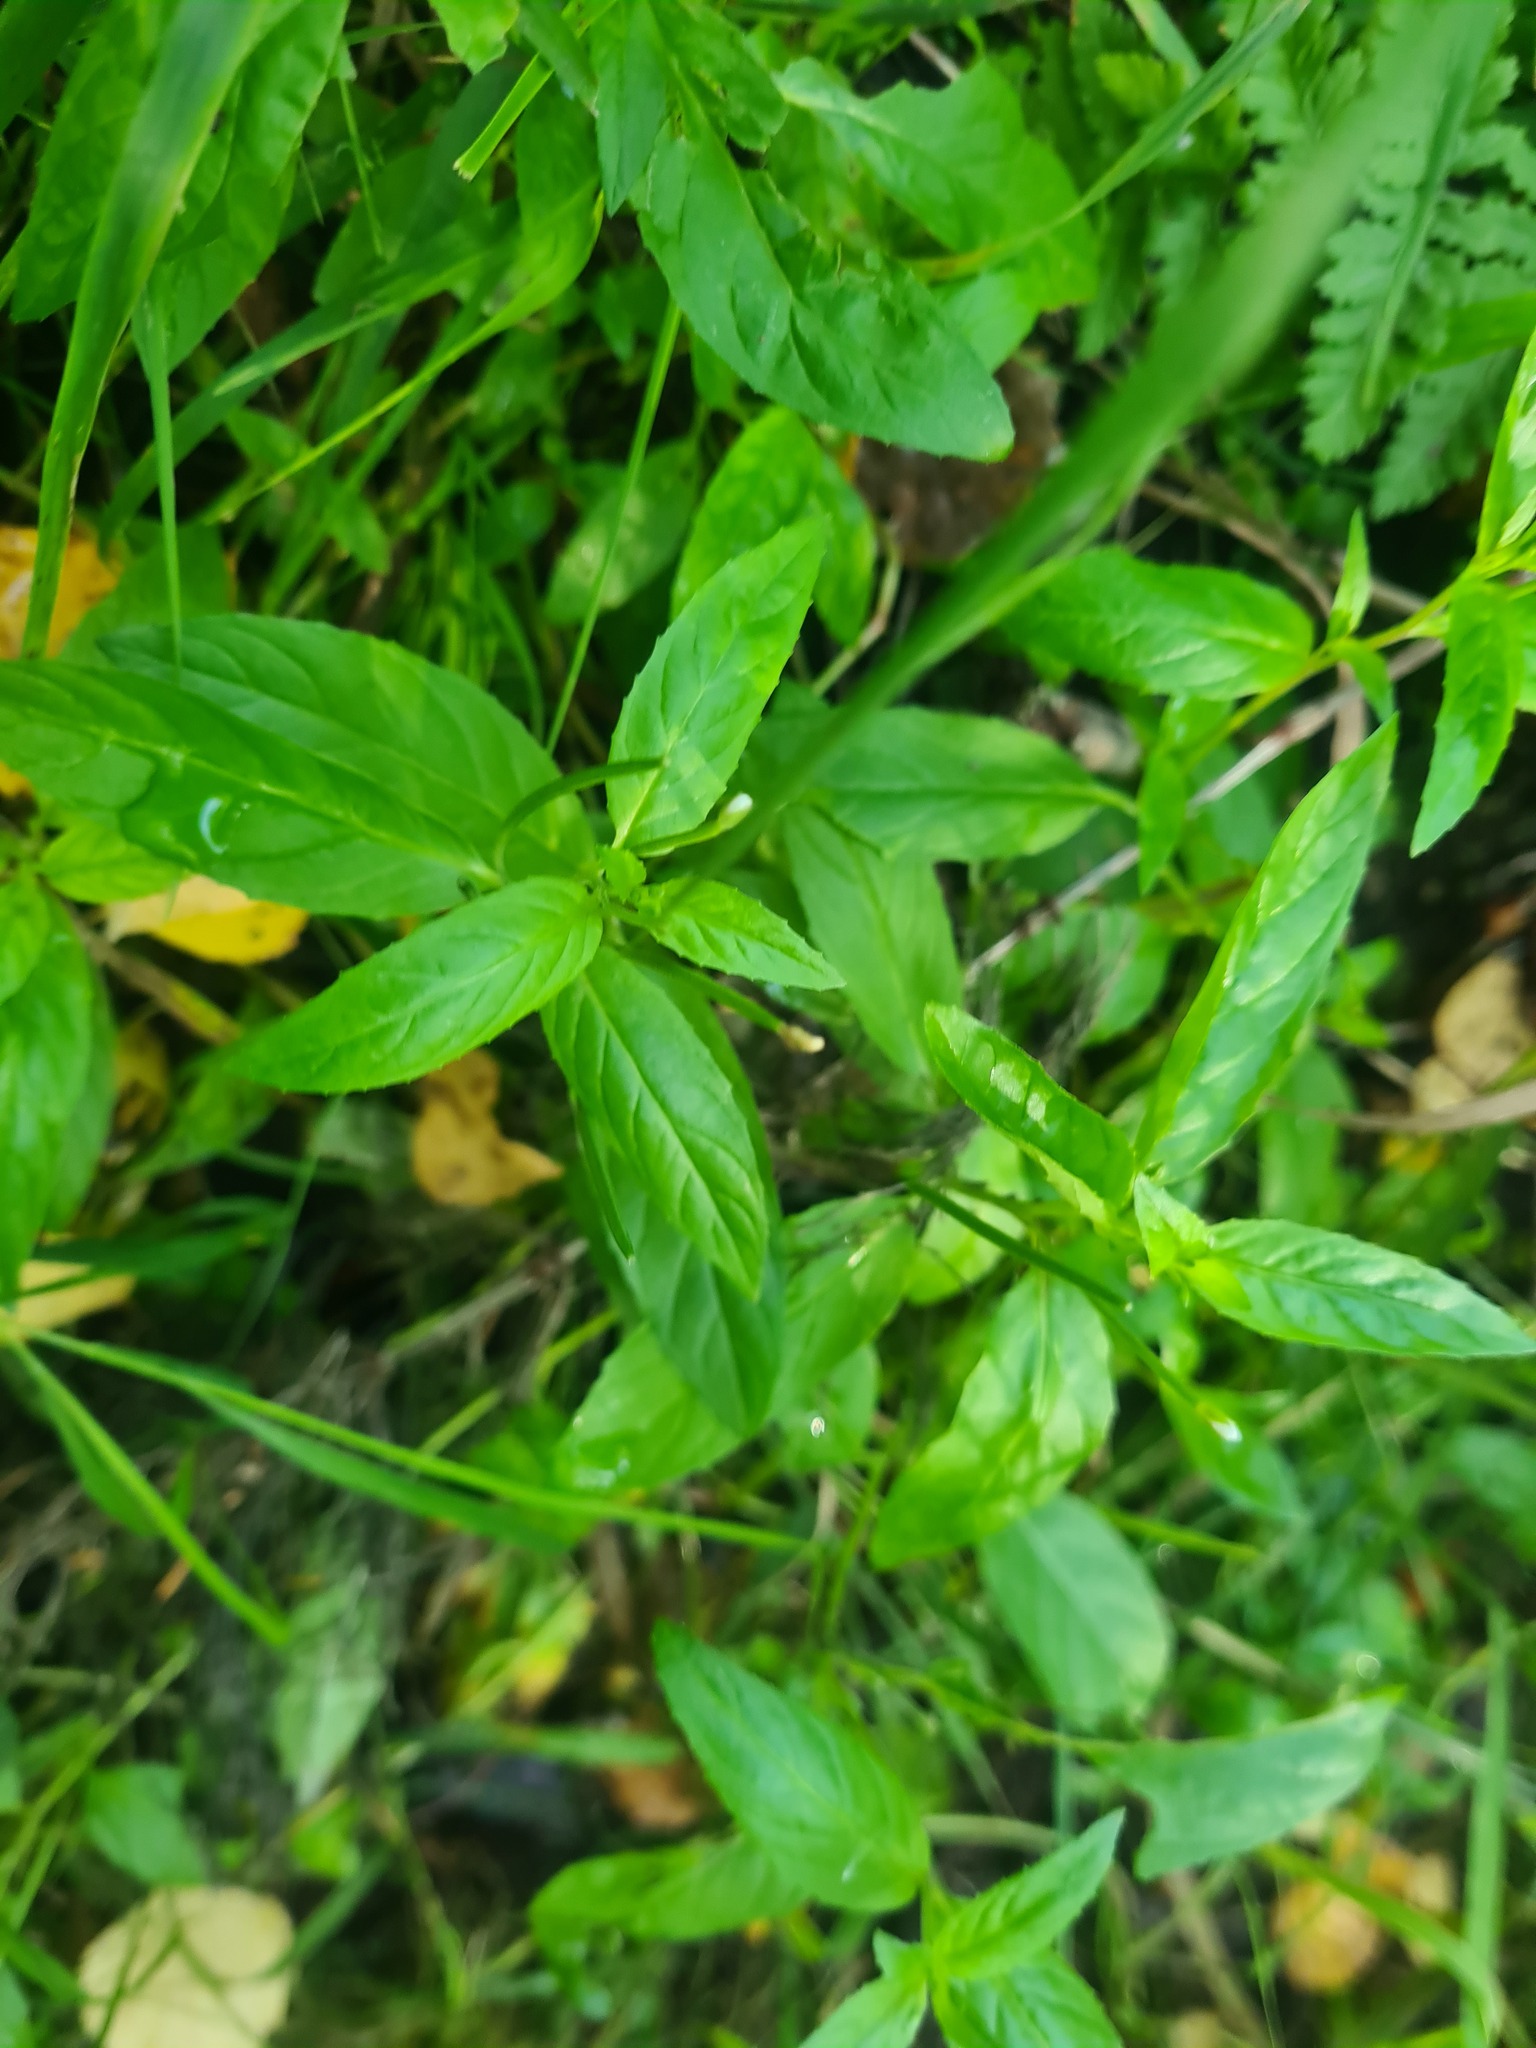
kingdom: Plantae
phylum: Tracheophyta
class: Magnoliopsida
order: Myrtales
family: Onagraceae
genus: Epilobium
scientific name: Epilobium pseudorubescens
